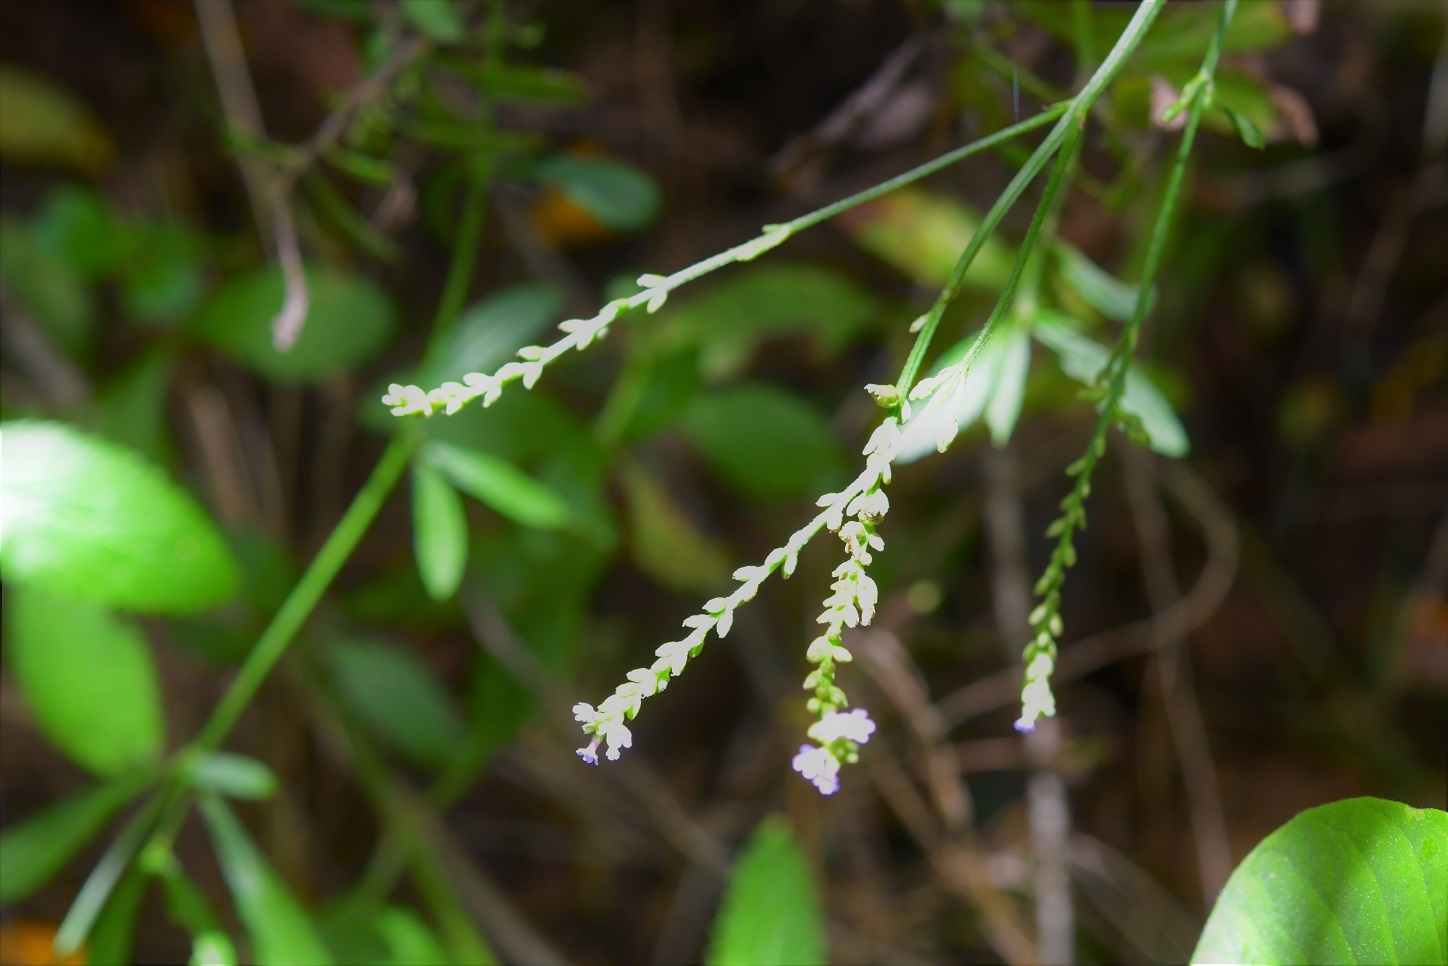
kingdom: Plantae
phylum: Tracheophyta
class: Magnoliopsida
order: Lamiales
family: Verbenaceae
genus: Verbena
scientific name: Verbena carolina
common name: Carolina vervain
